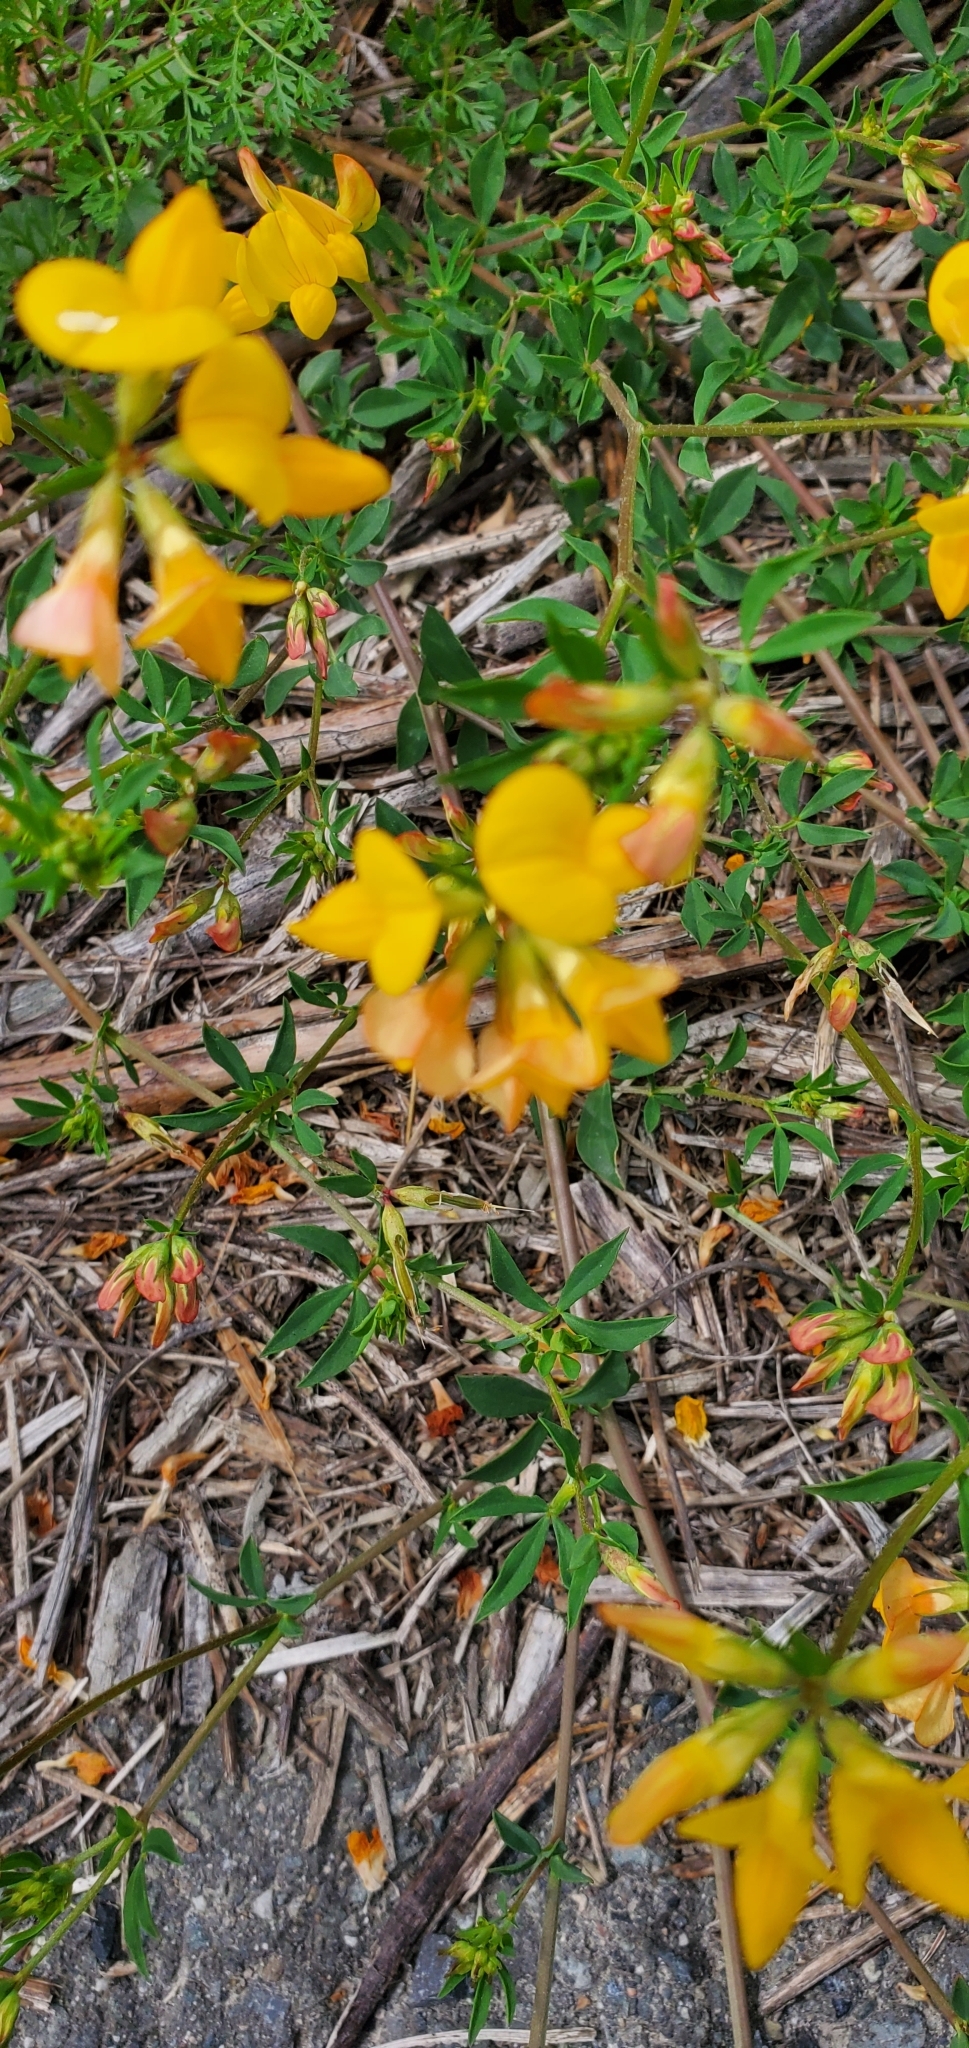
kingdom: Plantae
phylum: Tracheophyta
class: Magnoliopsida
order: Fabales
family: Fabaceae
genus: Lotus
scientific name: Lotus corniculatus
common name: Common bird's-foot-trefoil
